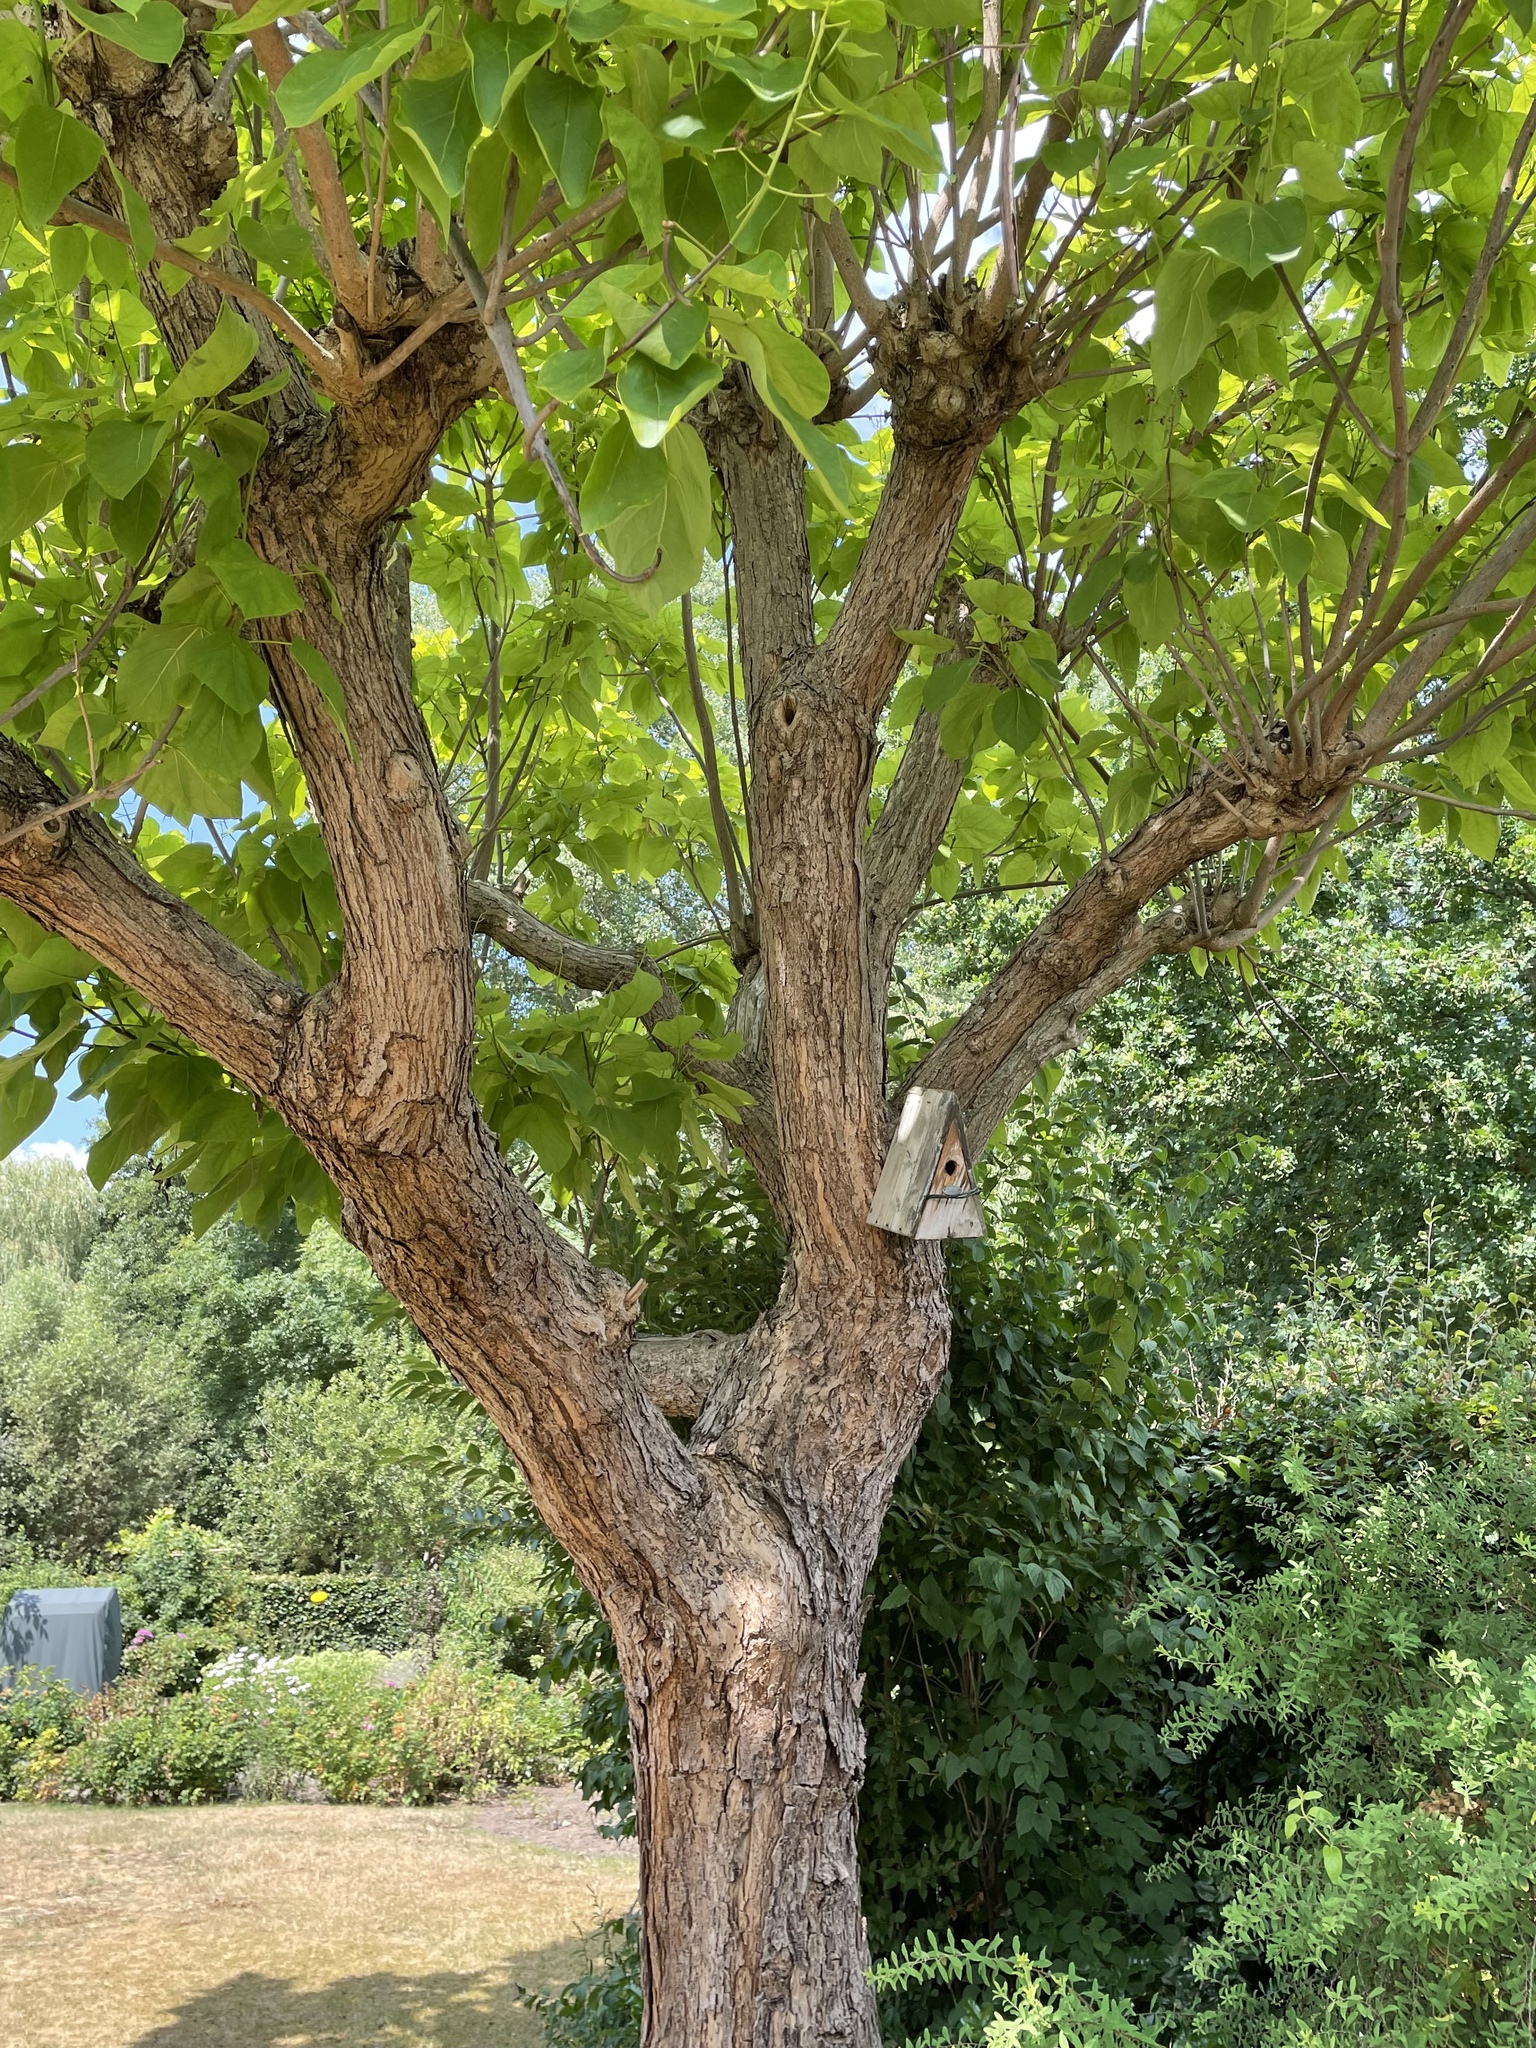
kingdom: Animalia
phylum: Arthropoda
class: Insecta
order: Hymenoptera
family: Vespidae
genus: Vespa
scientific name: Vespa crabro
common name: Hornet
